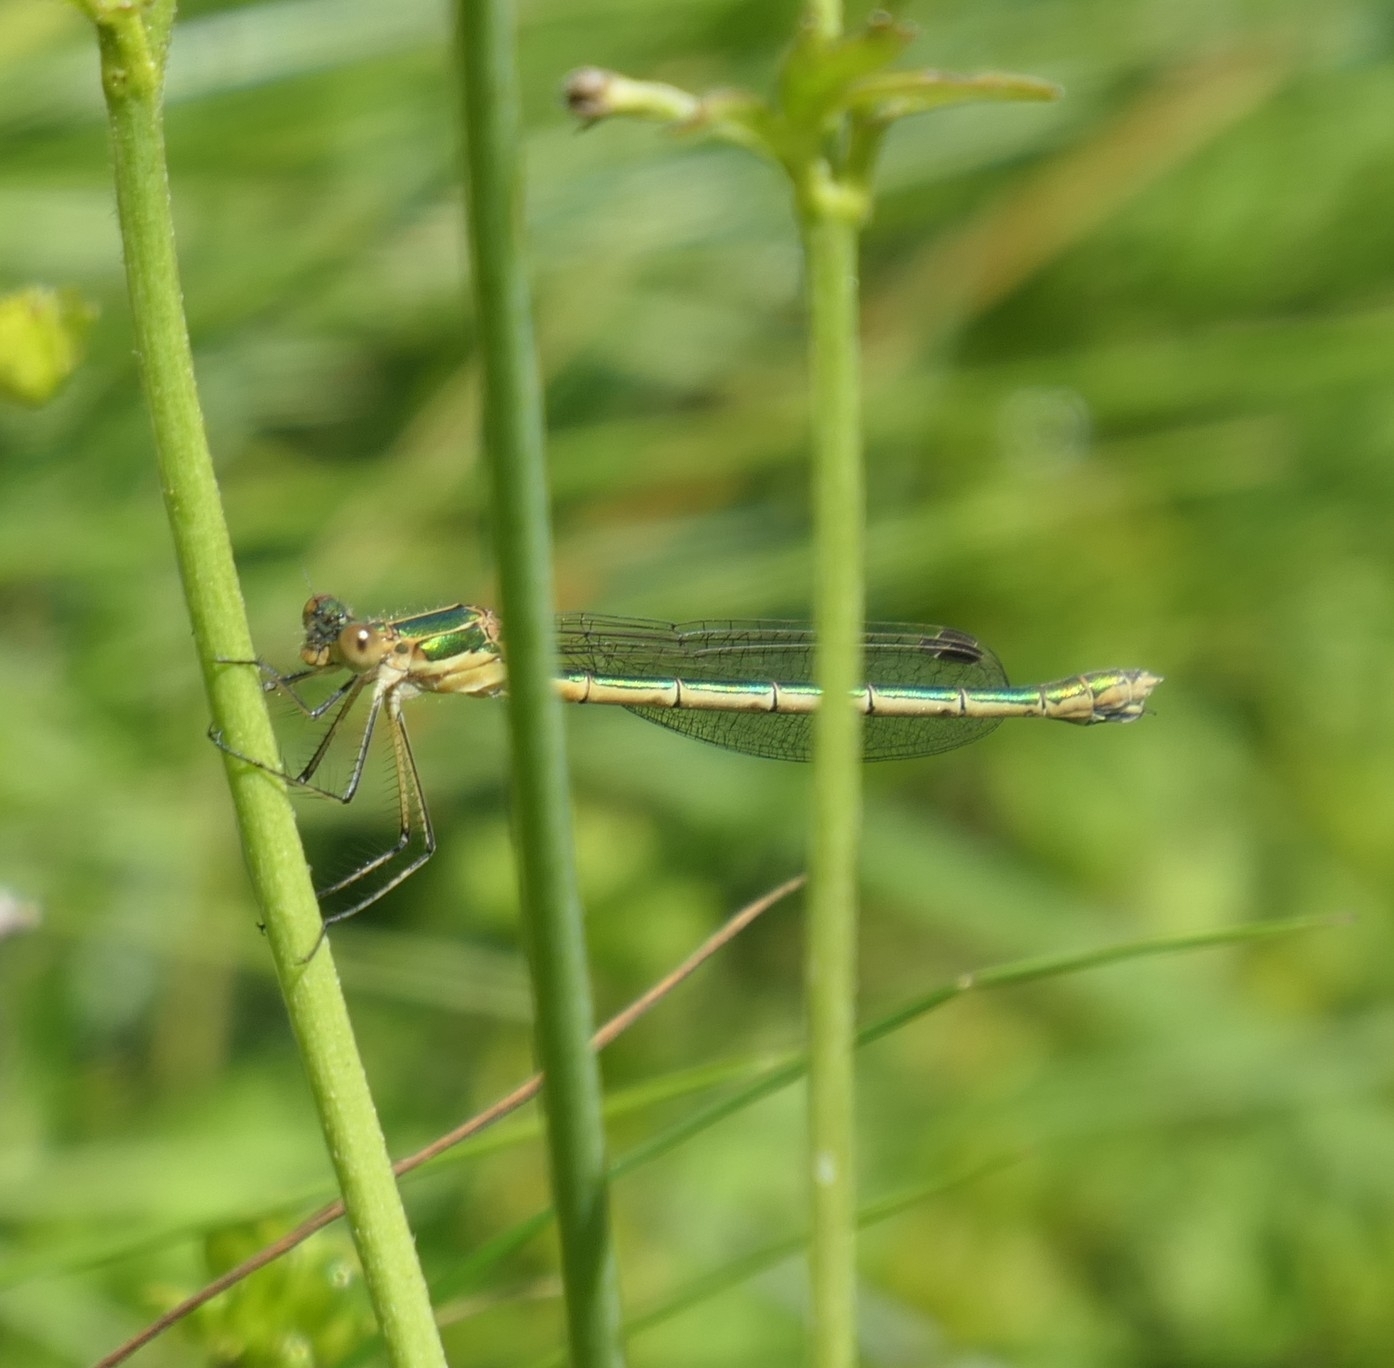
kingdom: Animalia
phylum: Arthropoda
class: Insecta
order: Odonata
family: Lestidae
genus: Lestes
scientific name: Lestes sponsa
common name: Common spreadwing
